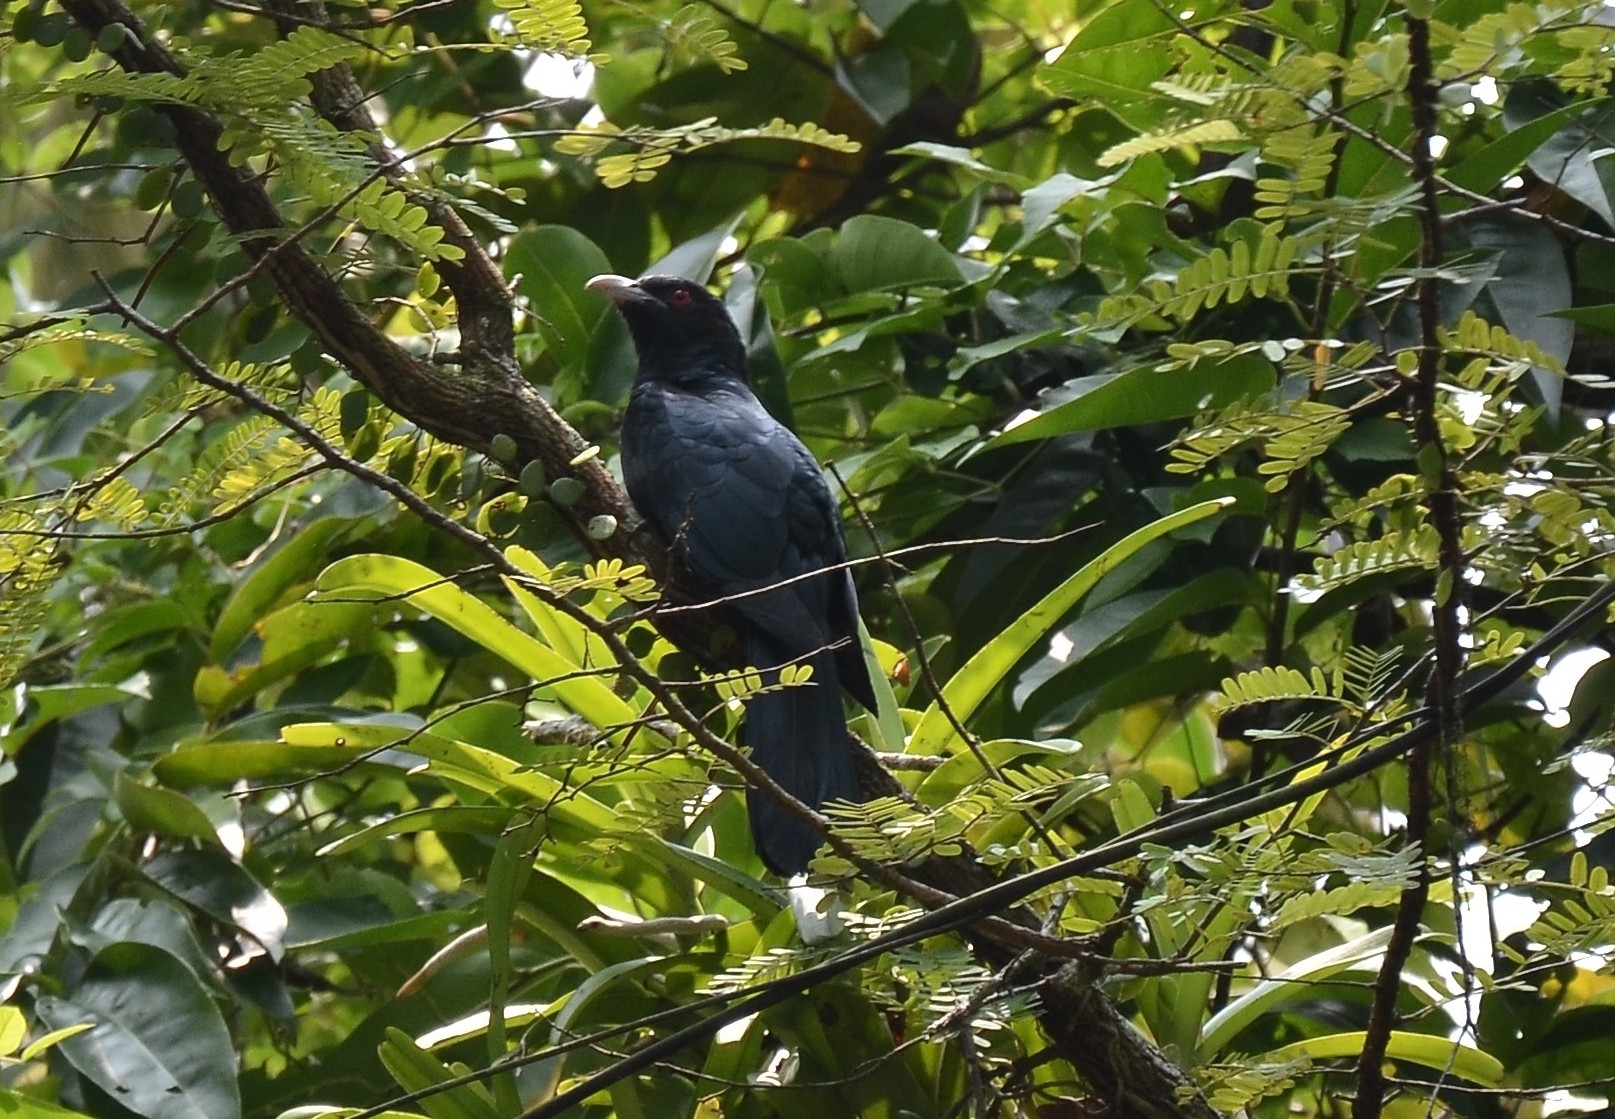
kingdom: Animalia
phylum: Chordata
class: Aves
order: Cuculiformes
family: Cuculidae
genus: Eudynamys
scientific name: Eudynamys scolopaceus
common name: Asian koel
